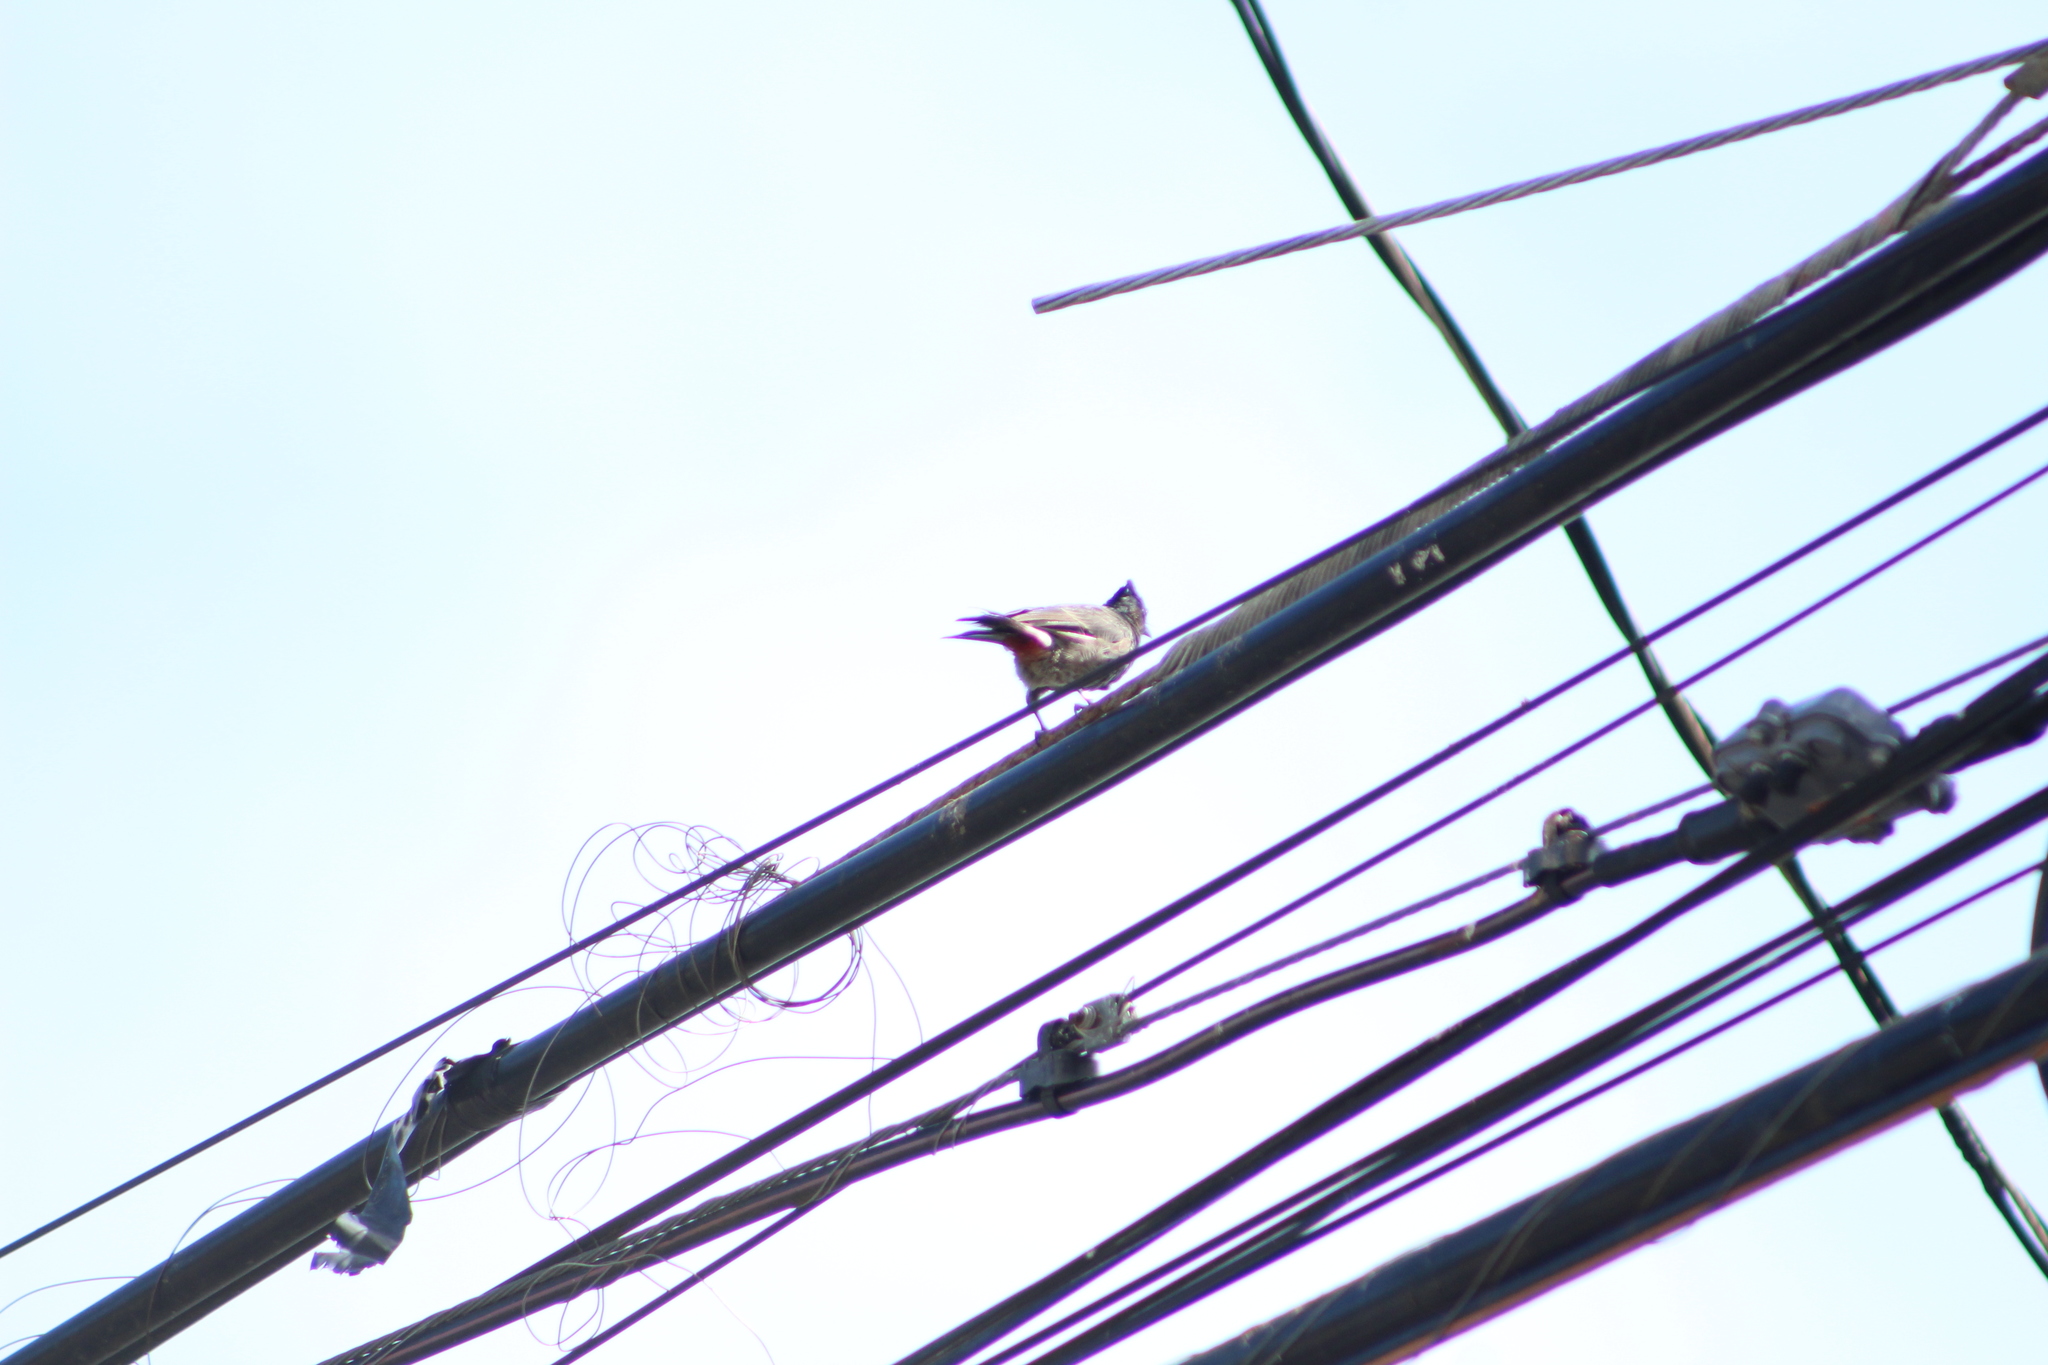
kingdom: Animalia
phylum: Chordata
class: Aves
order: Passeriformes
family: Pycnonotidae
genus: Pycnonotus
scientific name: Pycnonotus cafer
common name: Red-vented bulbul
